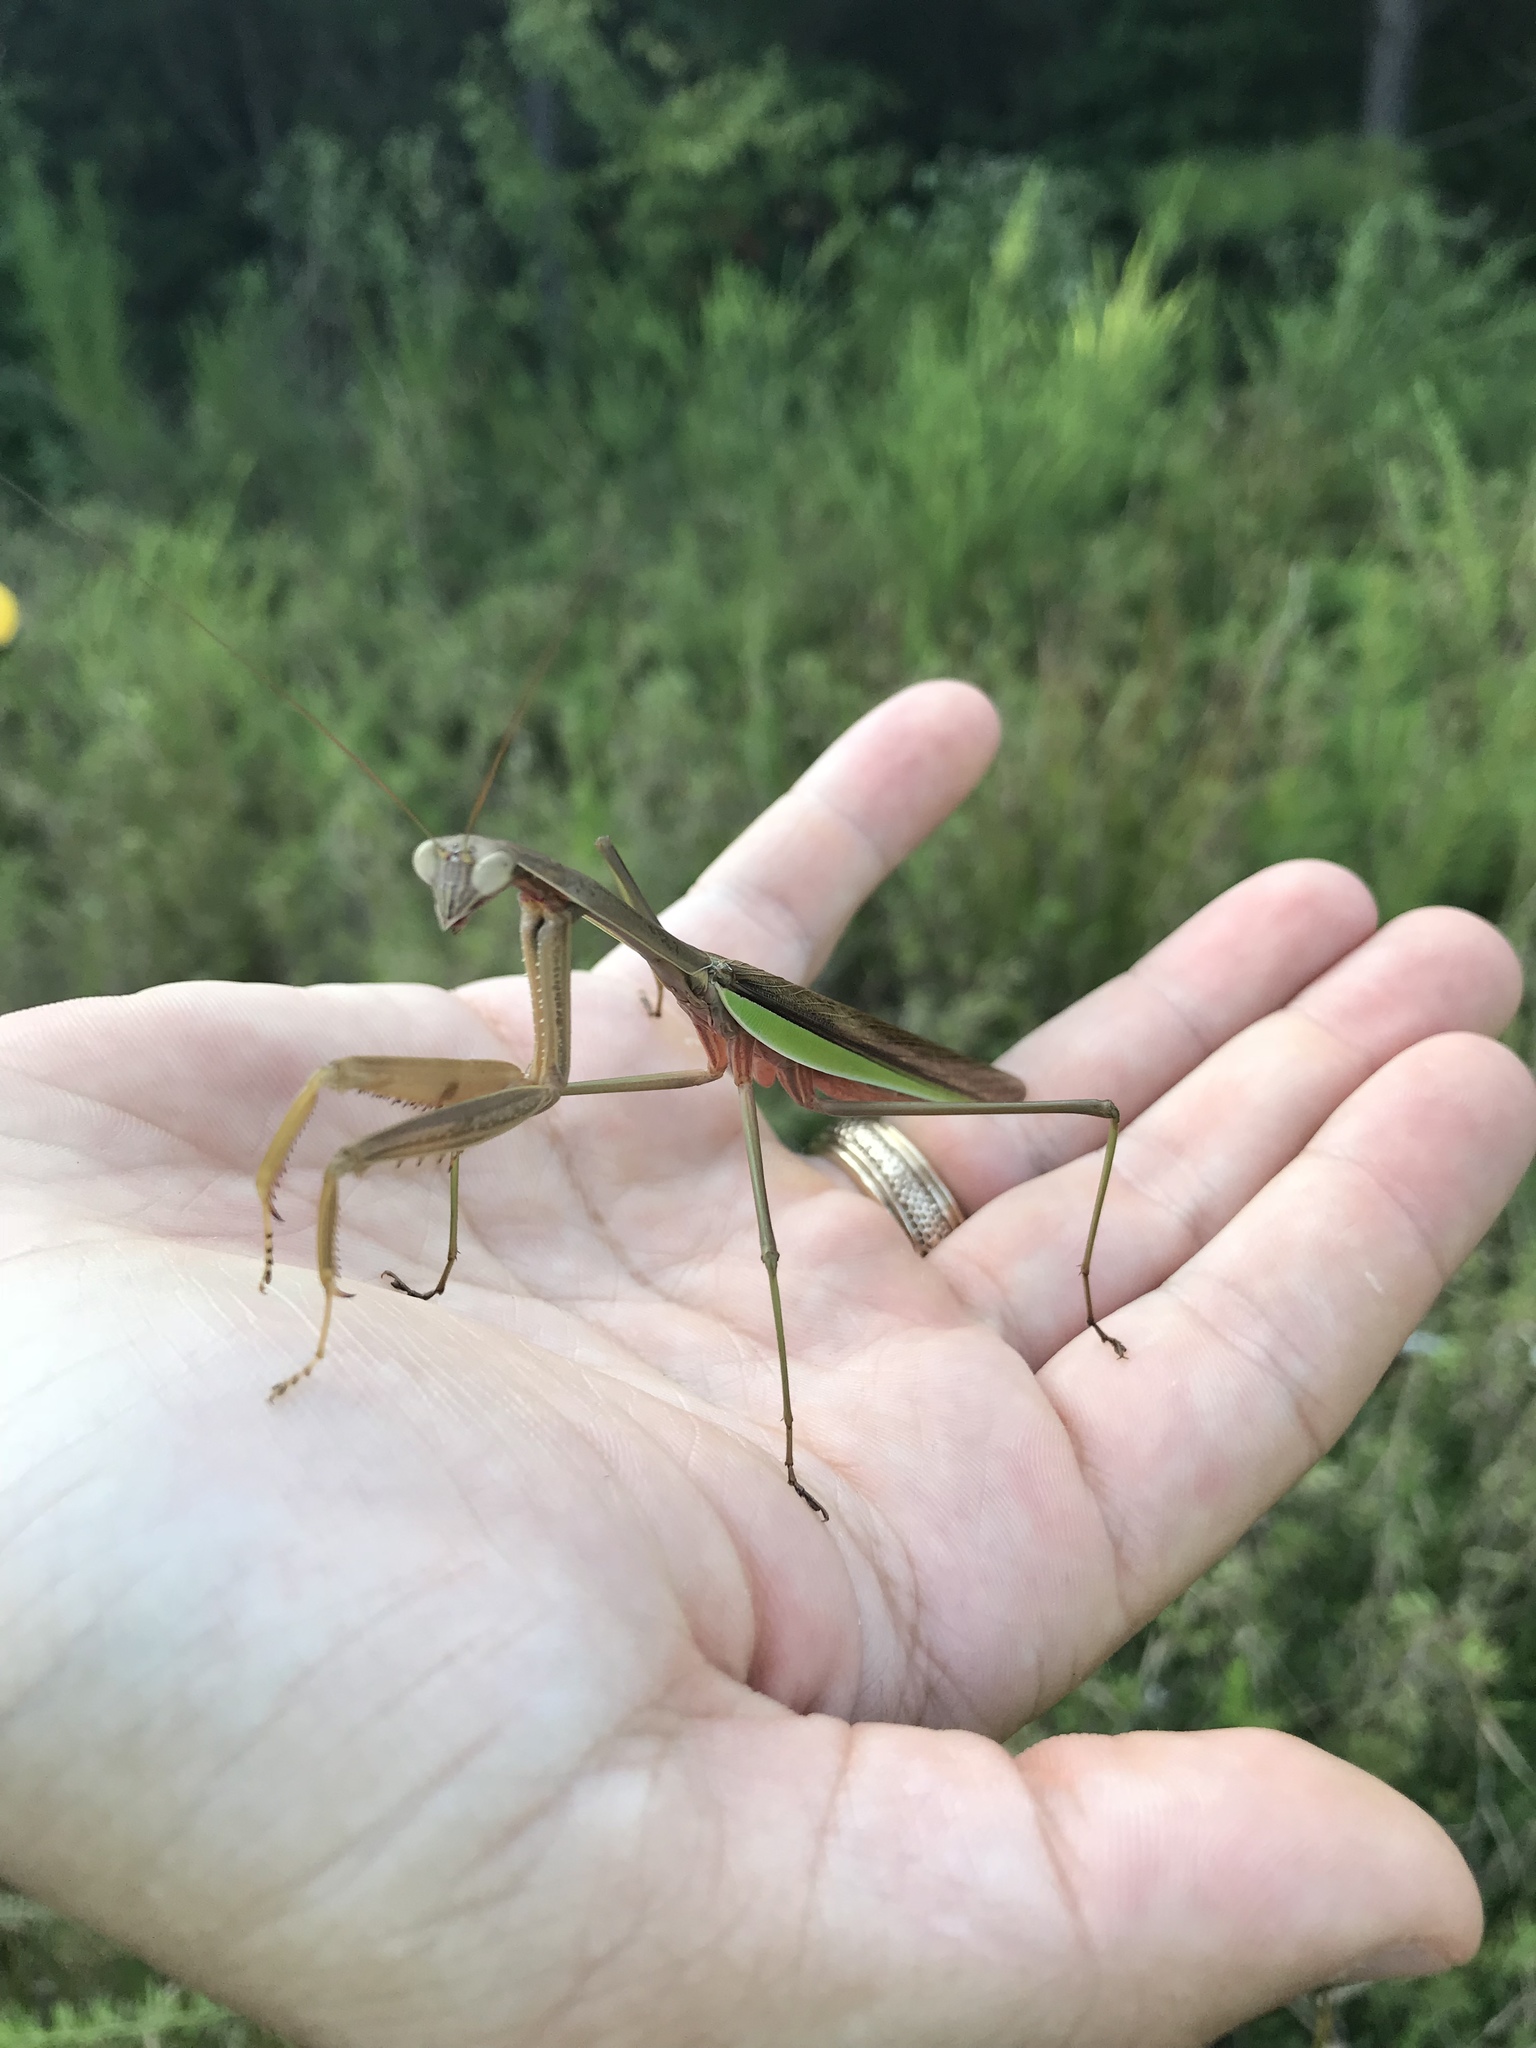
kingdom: Animalia
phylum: Arthropoda
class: Insecta
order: Mantodea
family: Mantidae
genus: Tenodera
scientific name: Tenodera sinensis
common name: Chinese mantis
